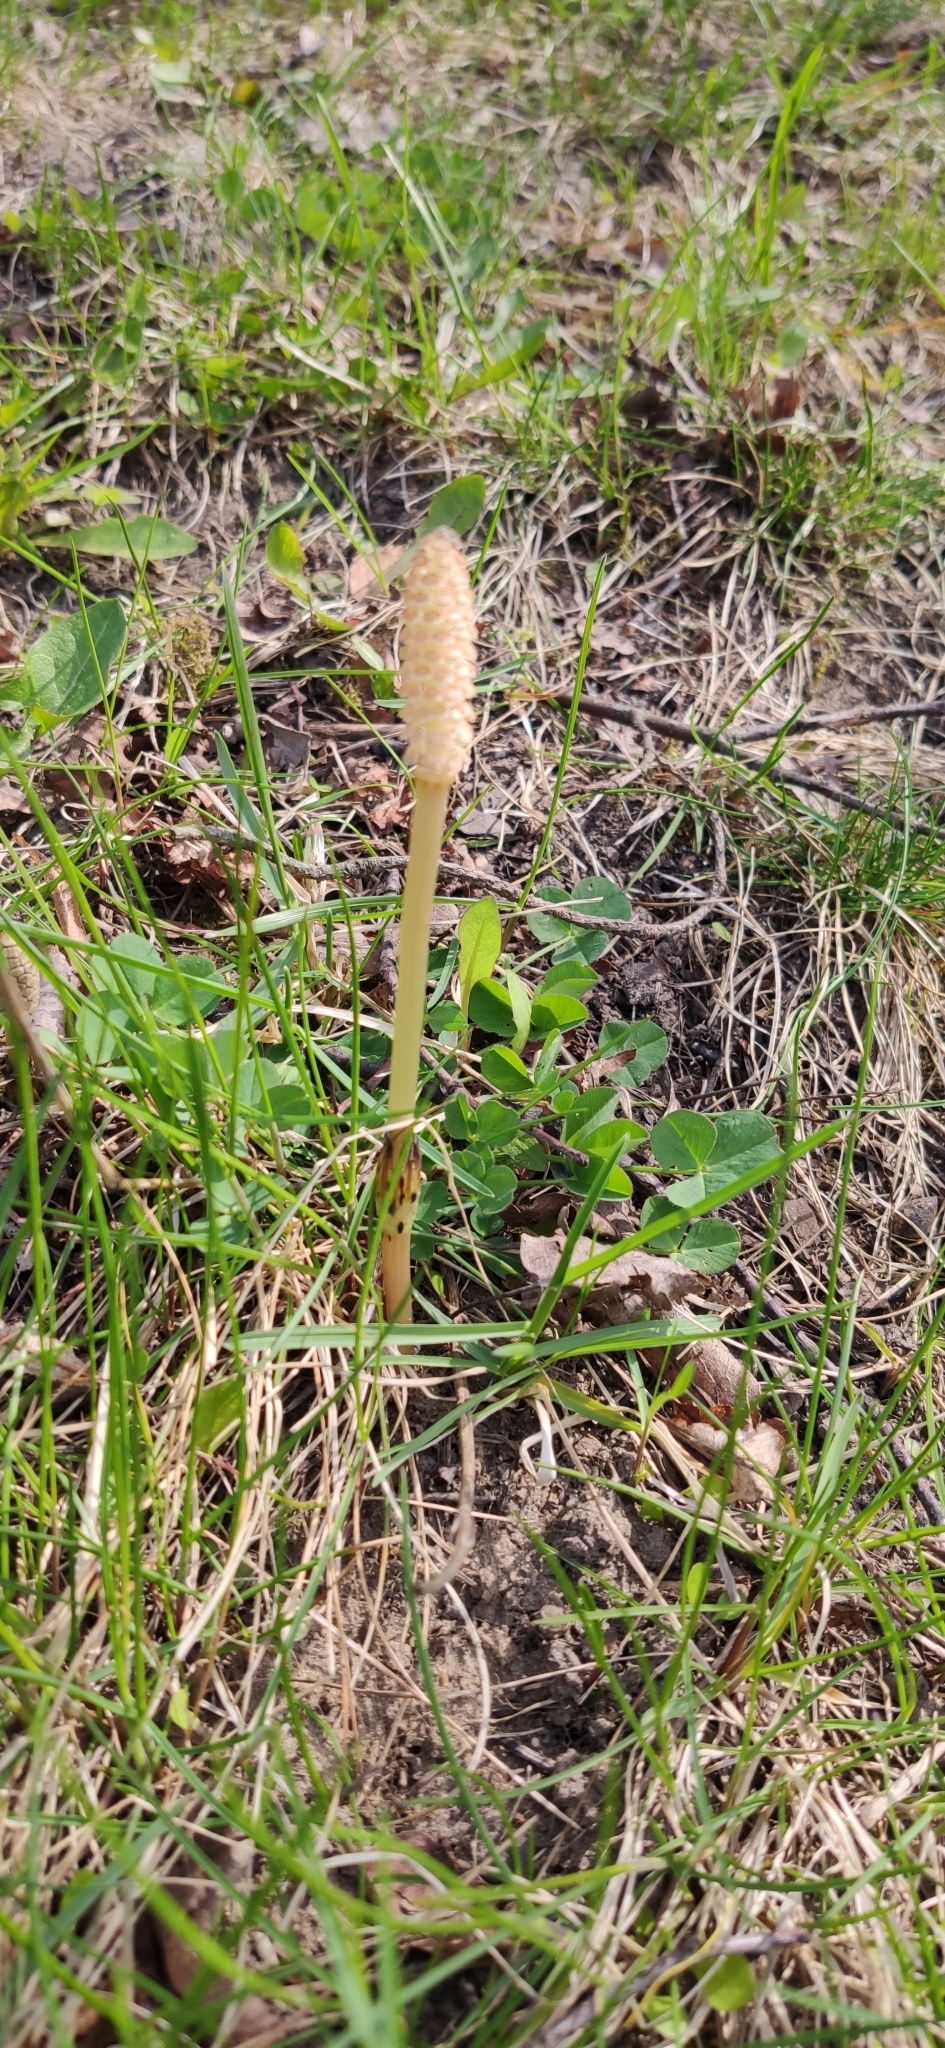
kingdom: Plantae
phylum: Tracheophyta
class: Polypodiopsida
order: Equisetales
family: Equisetaceae
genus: Equisetum
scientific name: Equisetum arvense
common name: Field horsetail
